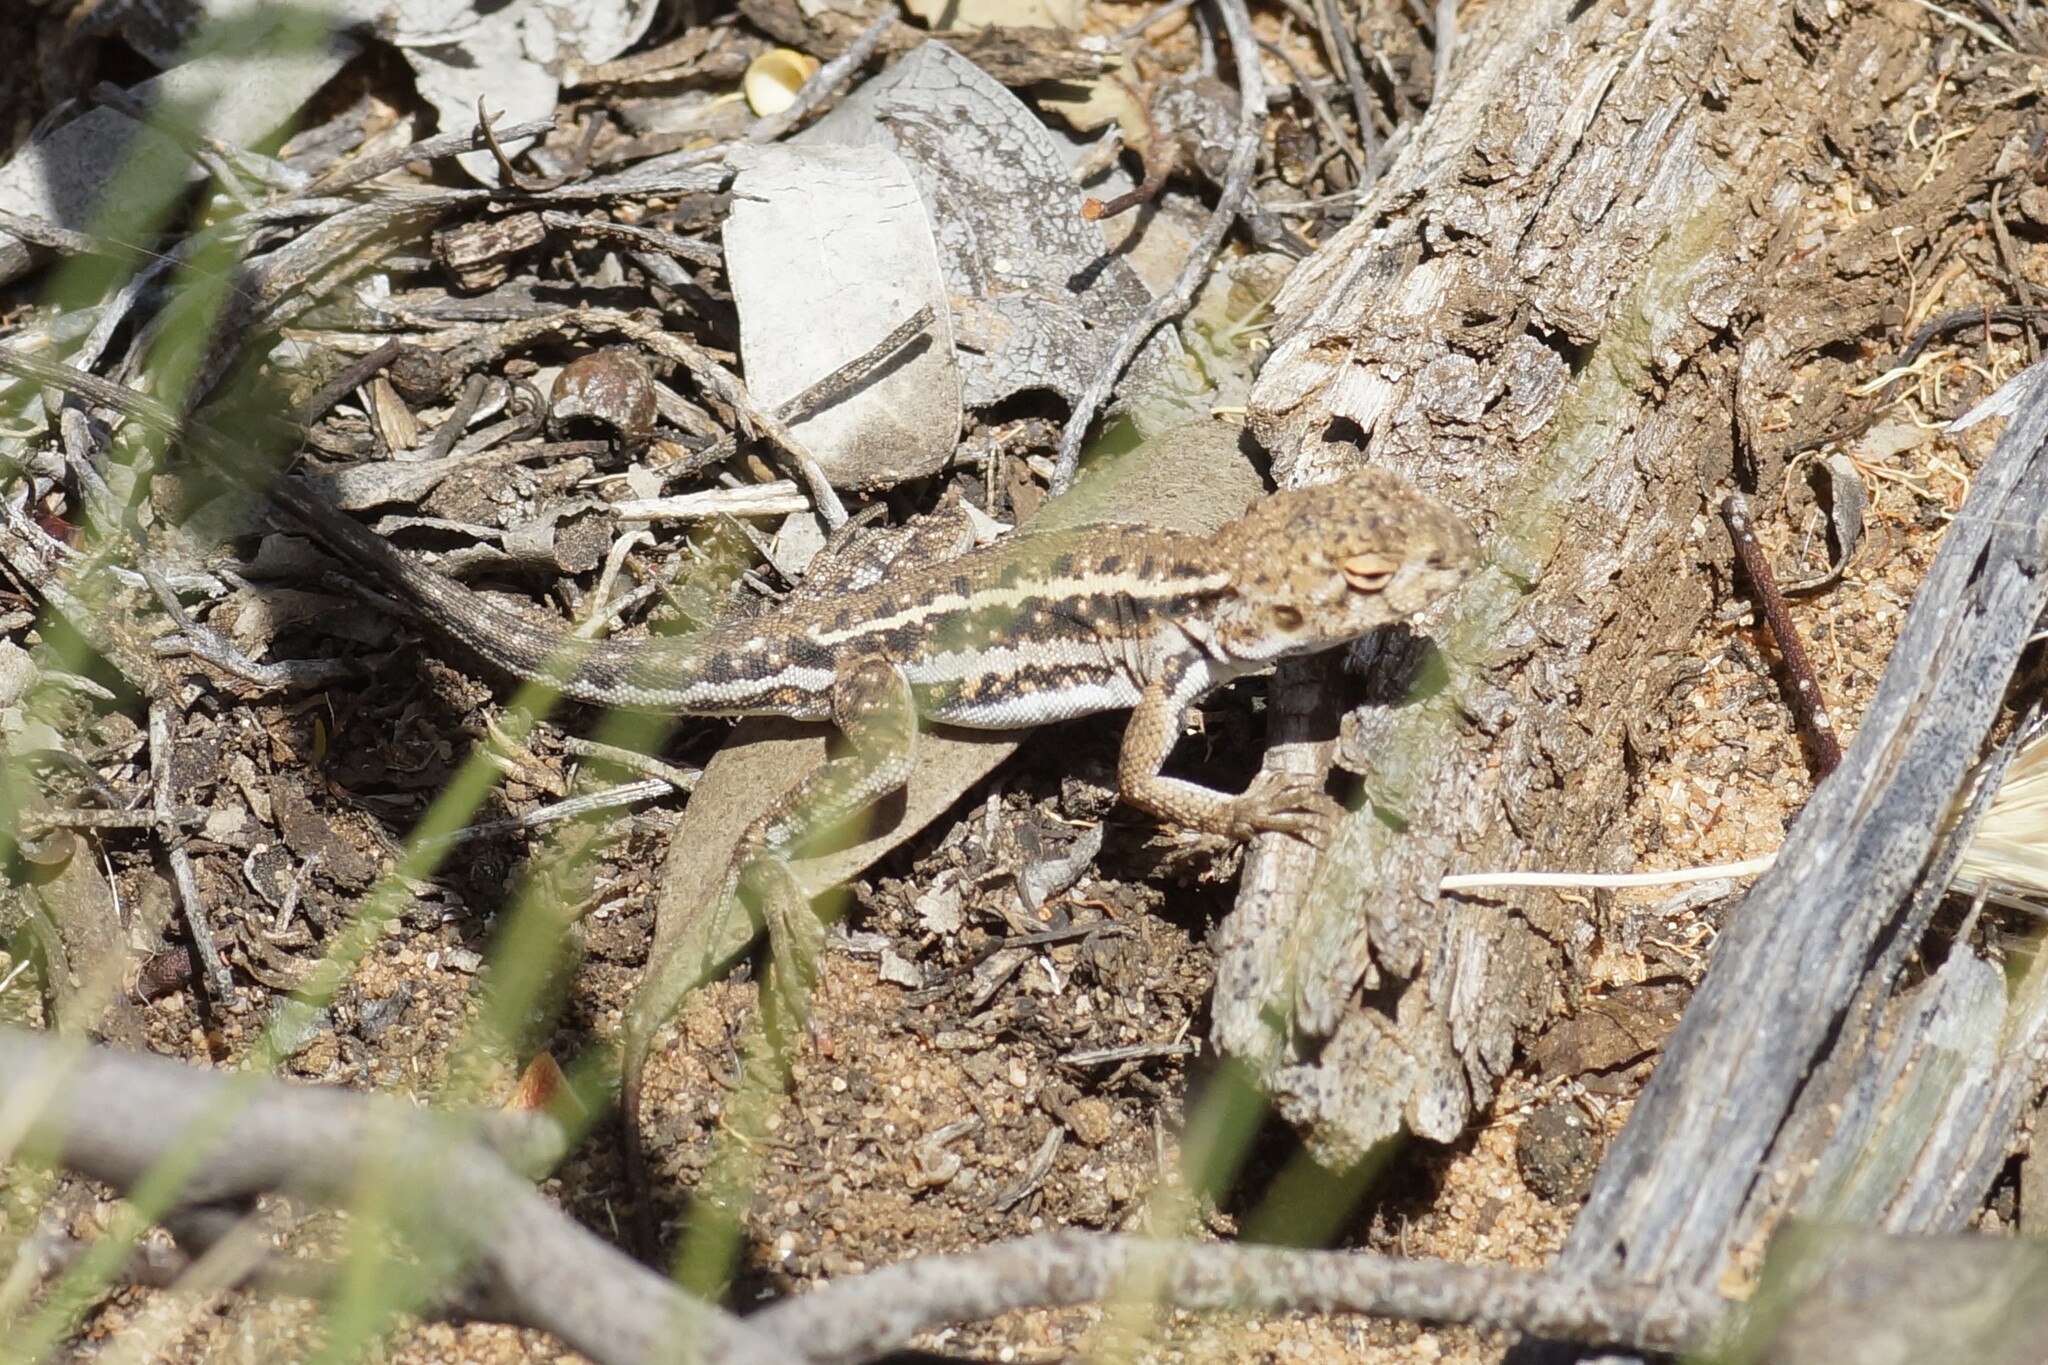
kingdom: Animalia
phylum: Chordata
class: Squamata
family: Agamidae
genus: Ctenophorus
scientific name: Ctenophorus
